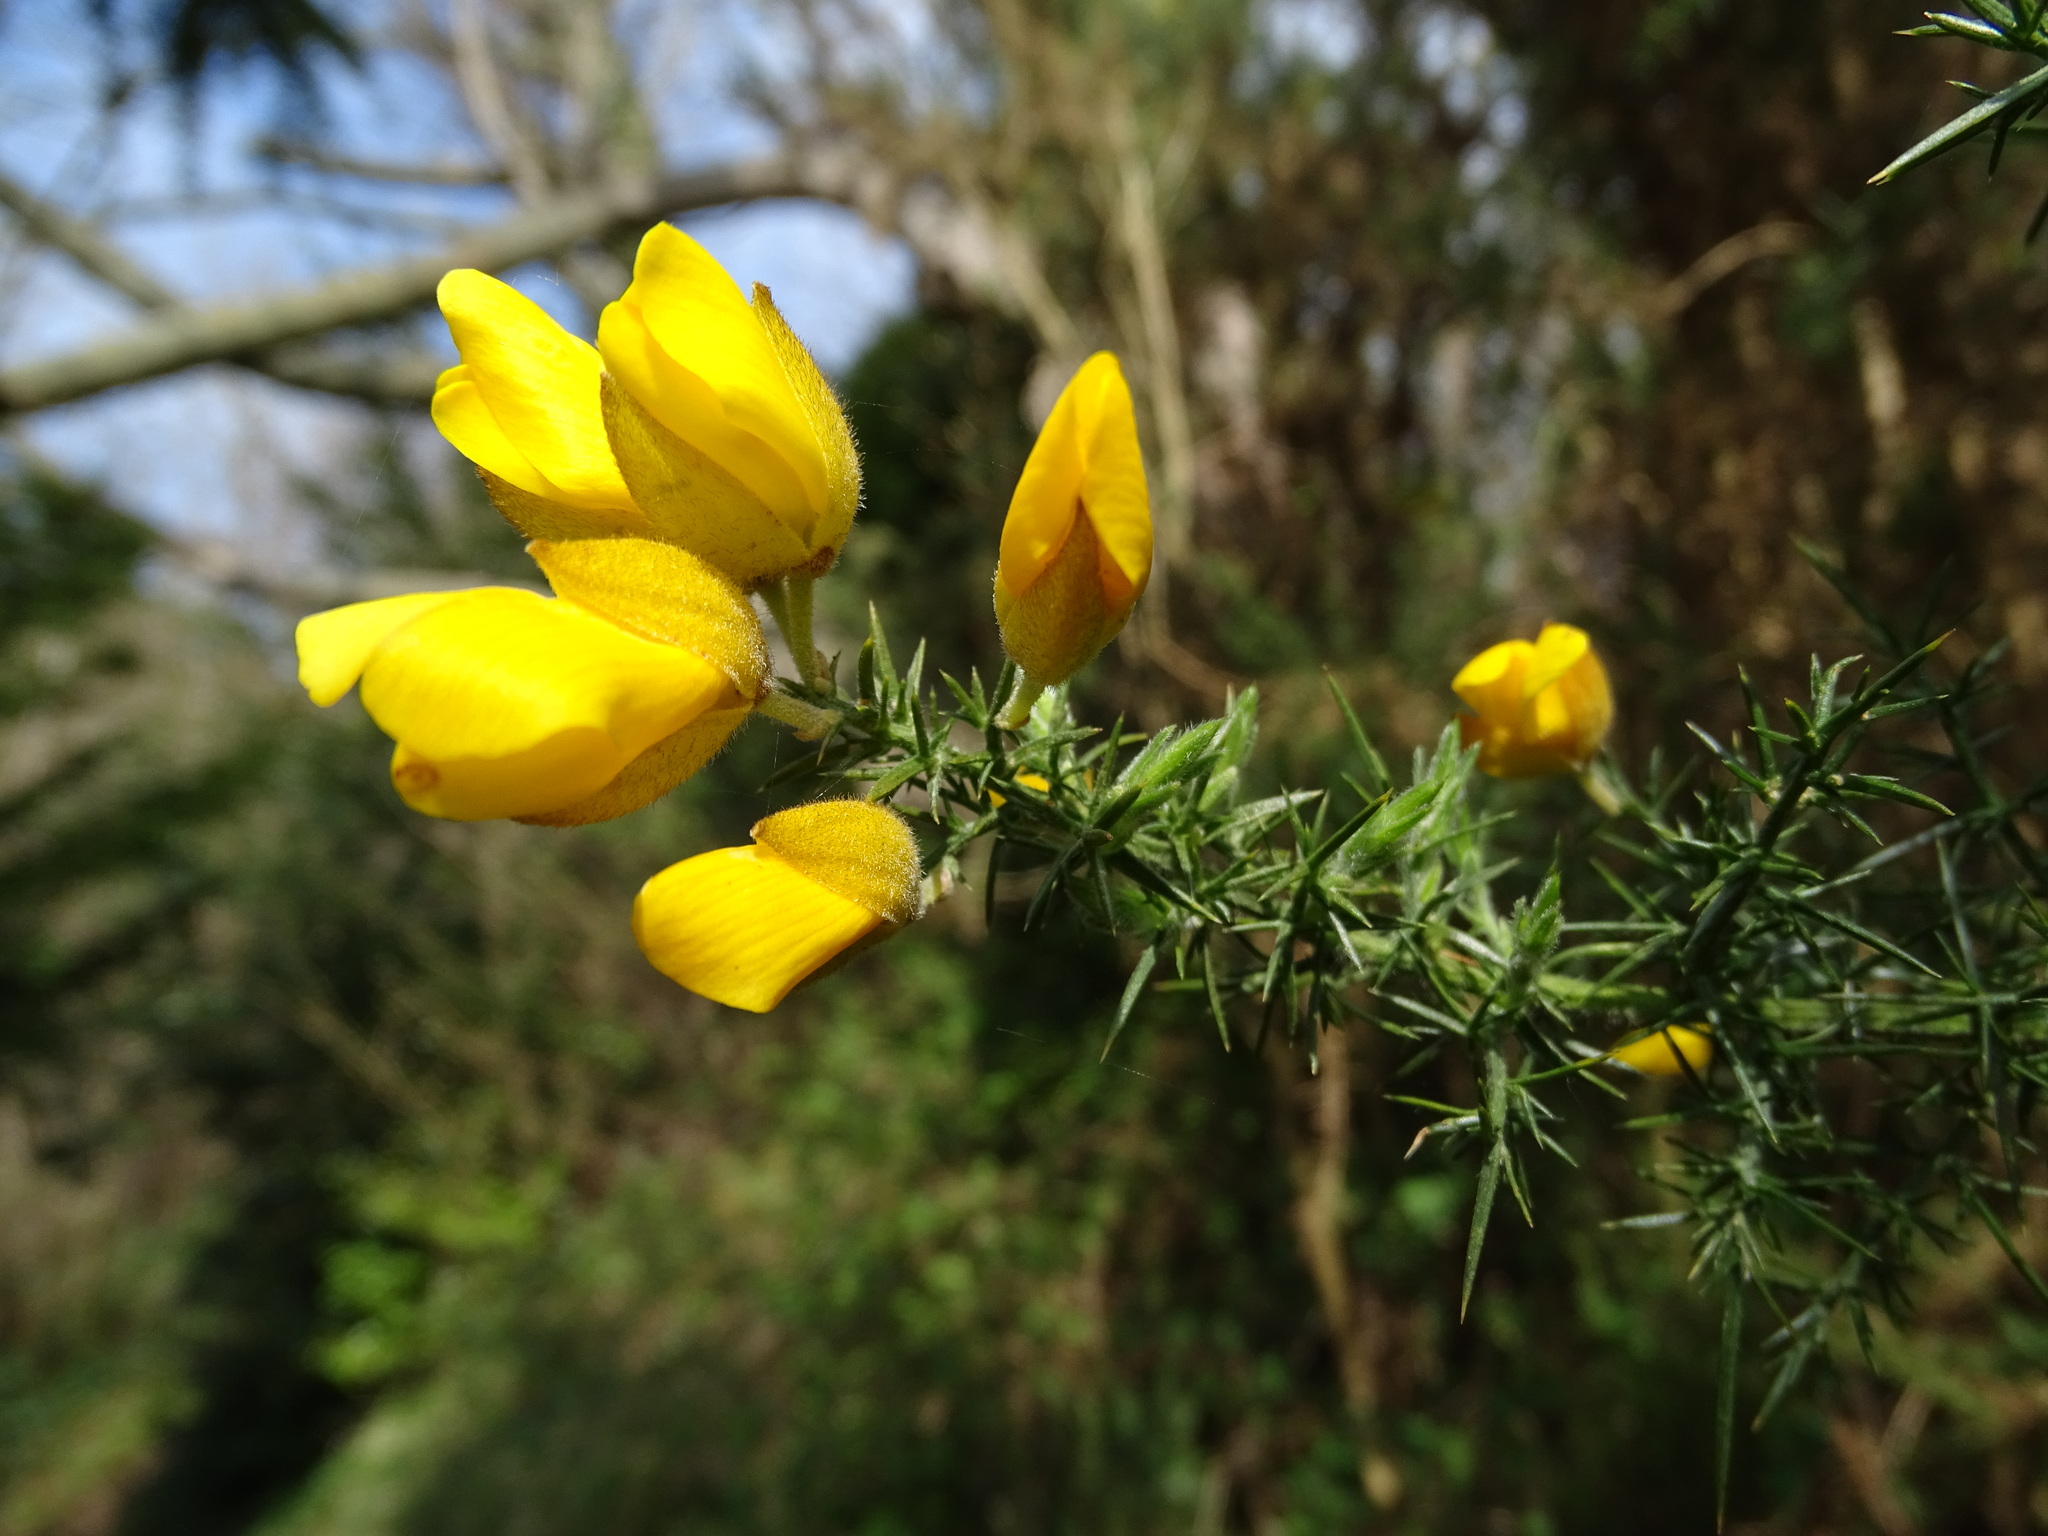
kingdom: Plantae
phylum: Tracheophyta
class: Magnoliopsida
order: Fabales
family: Fabaceae
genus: Ulex
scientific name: Ulex europaeus
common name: Common gorse
